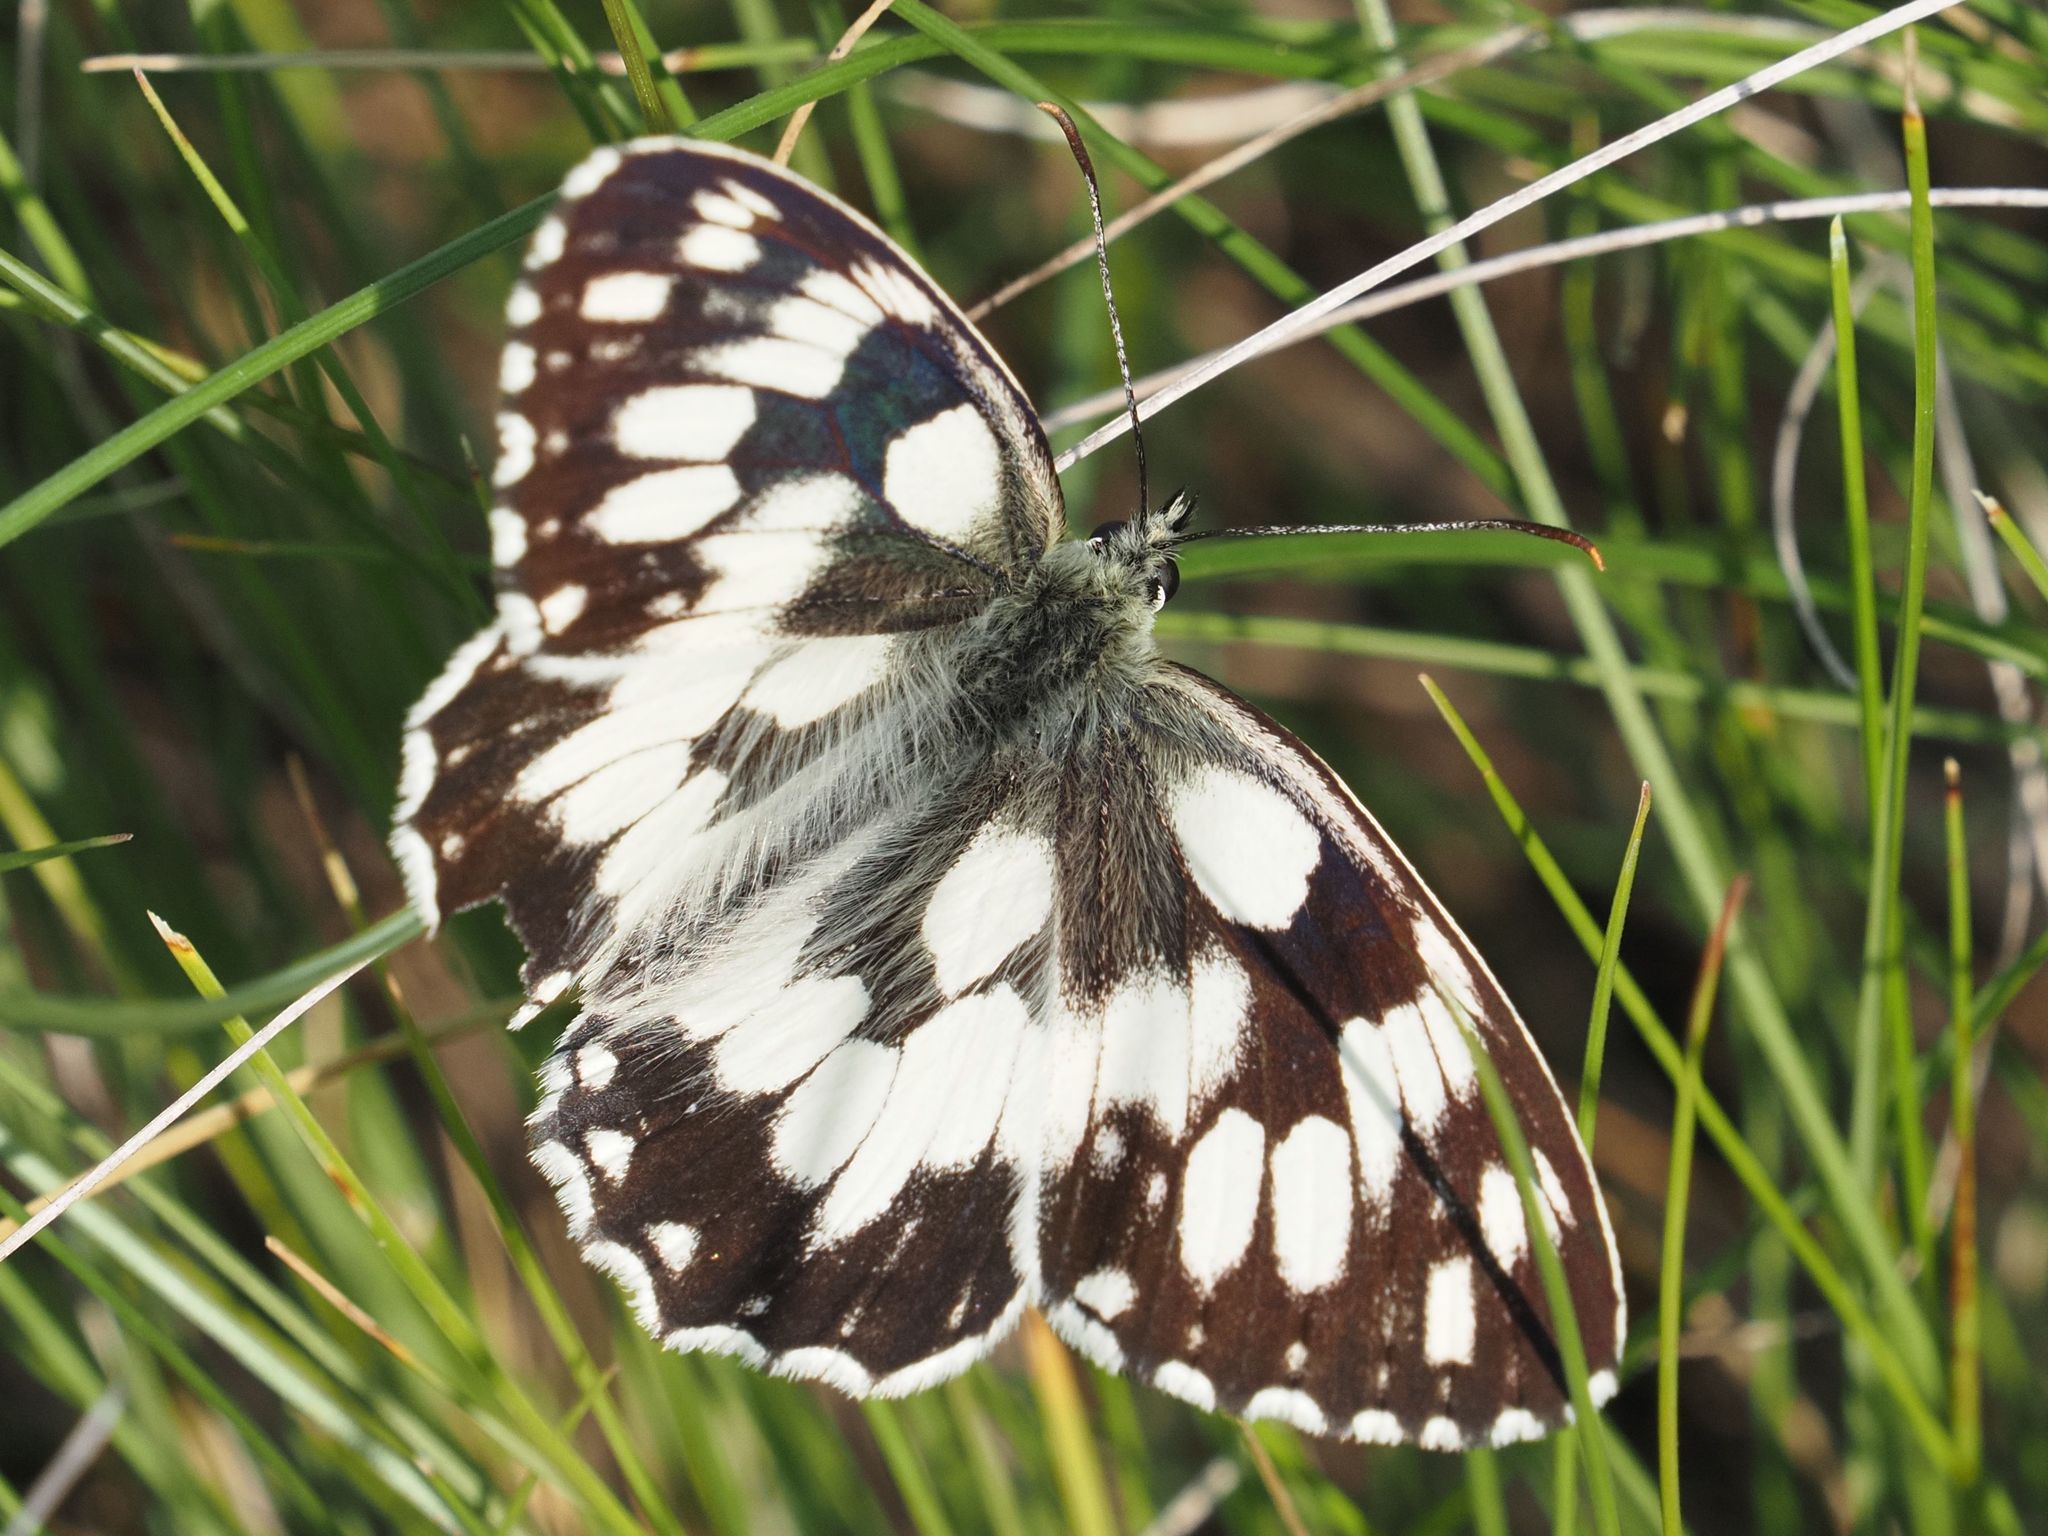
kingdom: Animalia
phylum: Arthropoda
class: Insecta
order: Lepidoptera
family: Nymphalidae
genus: Melanargia
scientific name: Melanargia galathea
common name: Marbled white
